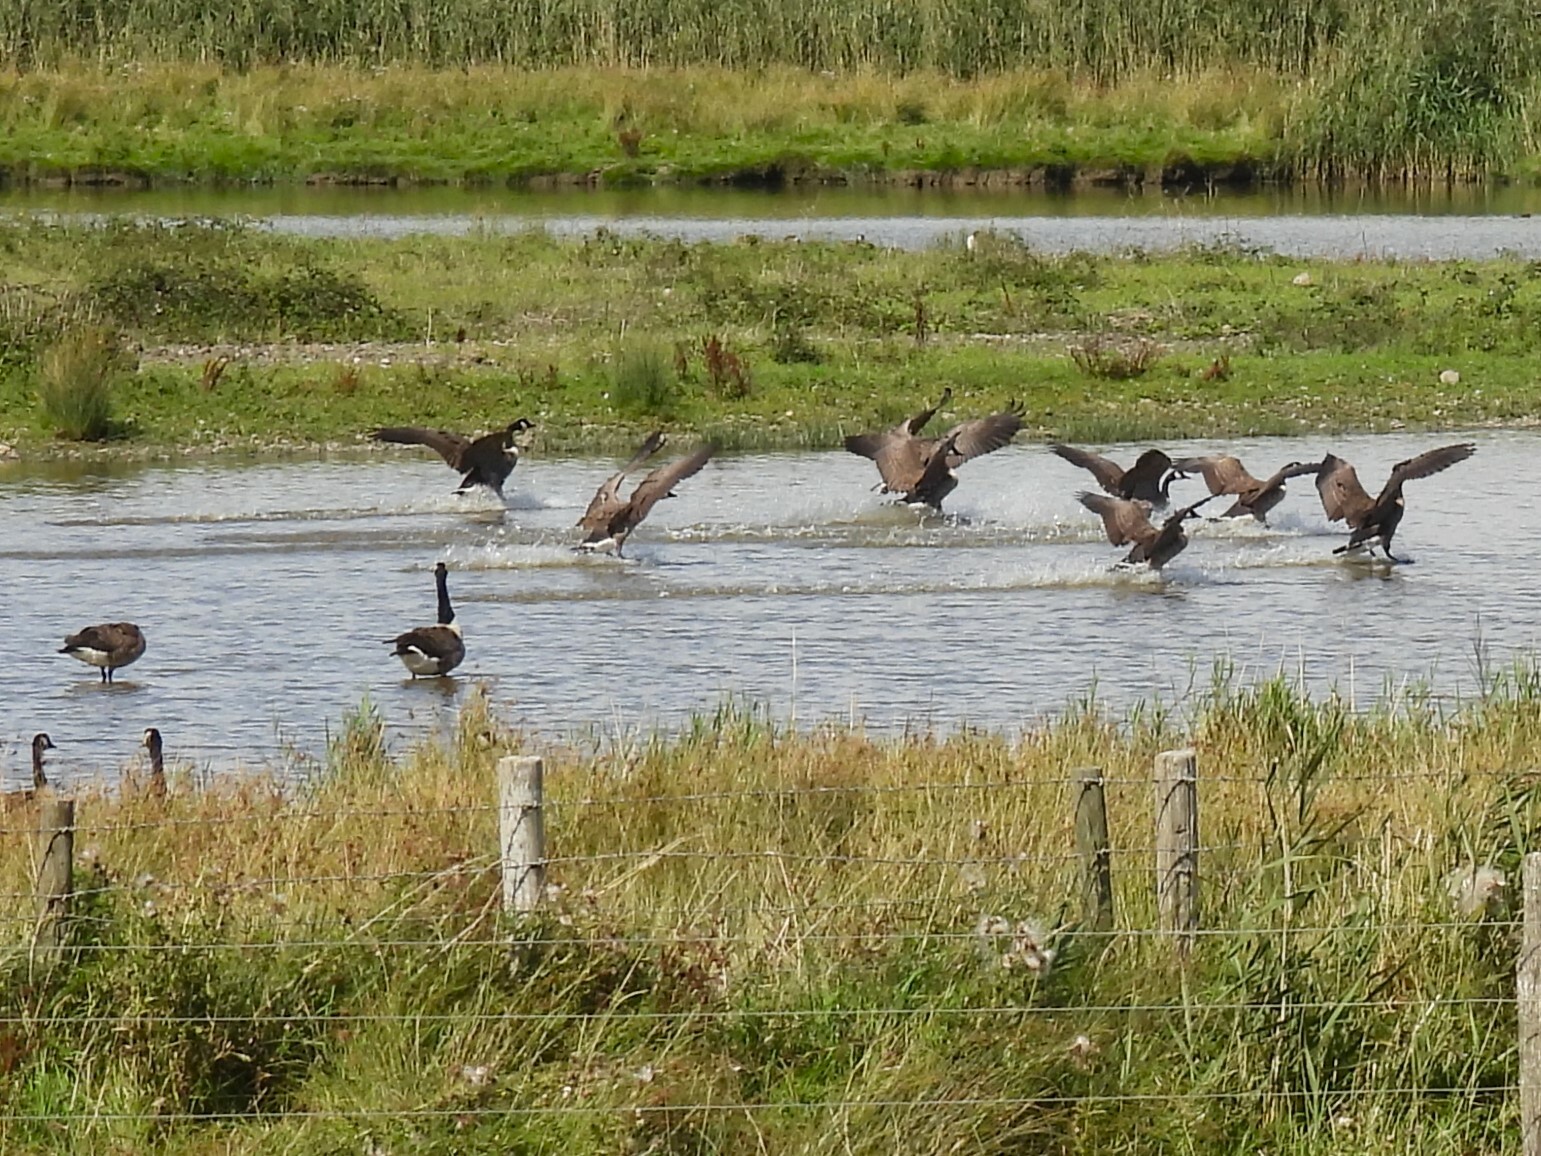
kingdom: Animalia
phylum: Chordata
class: Aves
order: Anseriformes
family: Anatidae
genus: Branta
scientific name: Branta canadensis
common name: Canada goose
